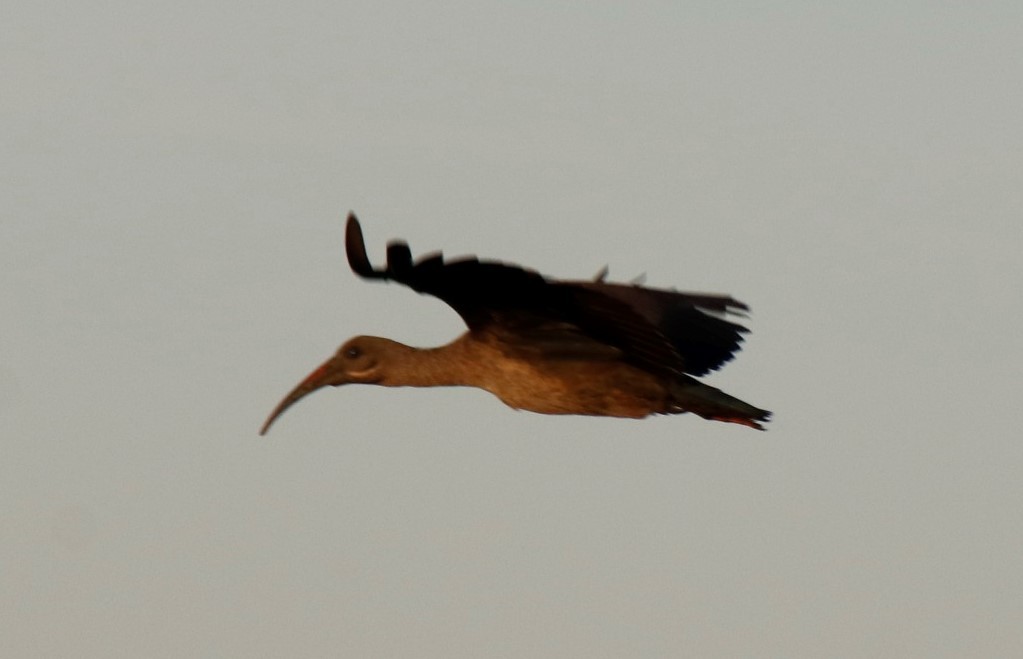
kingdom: Animalia
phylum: Chordata
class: Aves
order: Pelecaniformes
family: Threskiornithidae
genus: Bostrychia
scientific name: Bostrychia hagedash
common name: Hadada ibis
